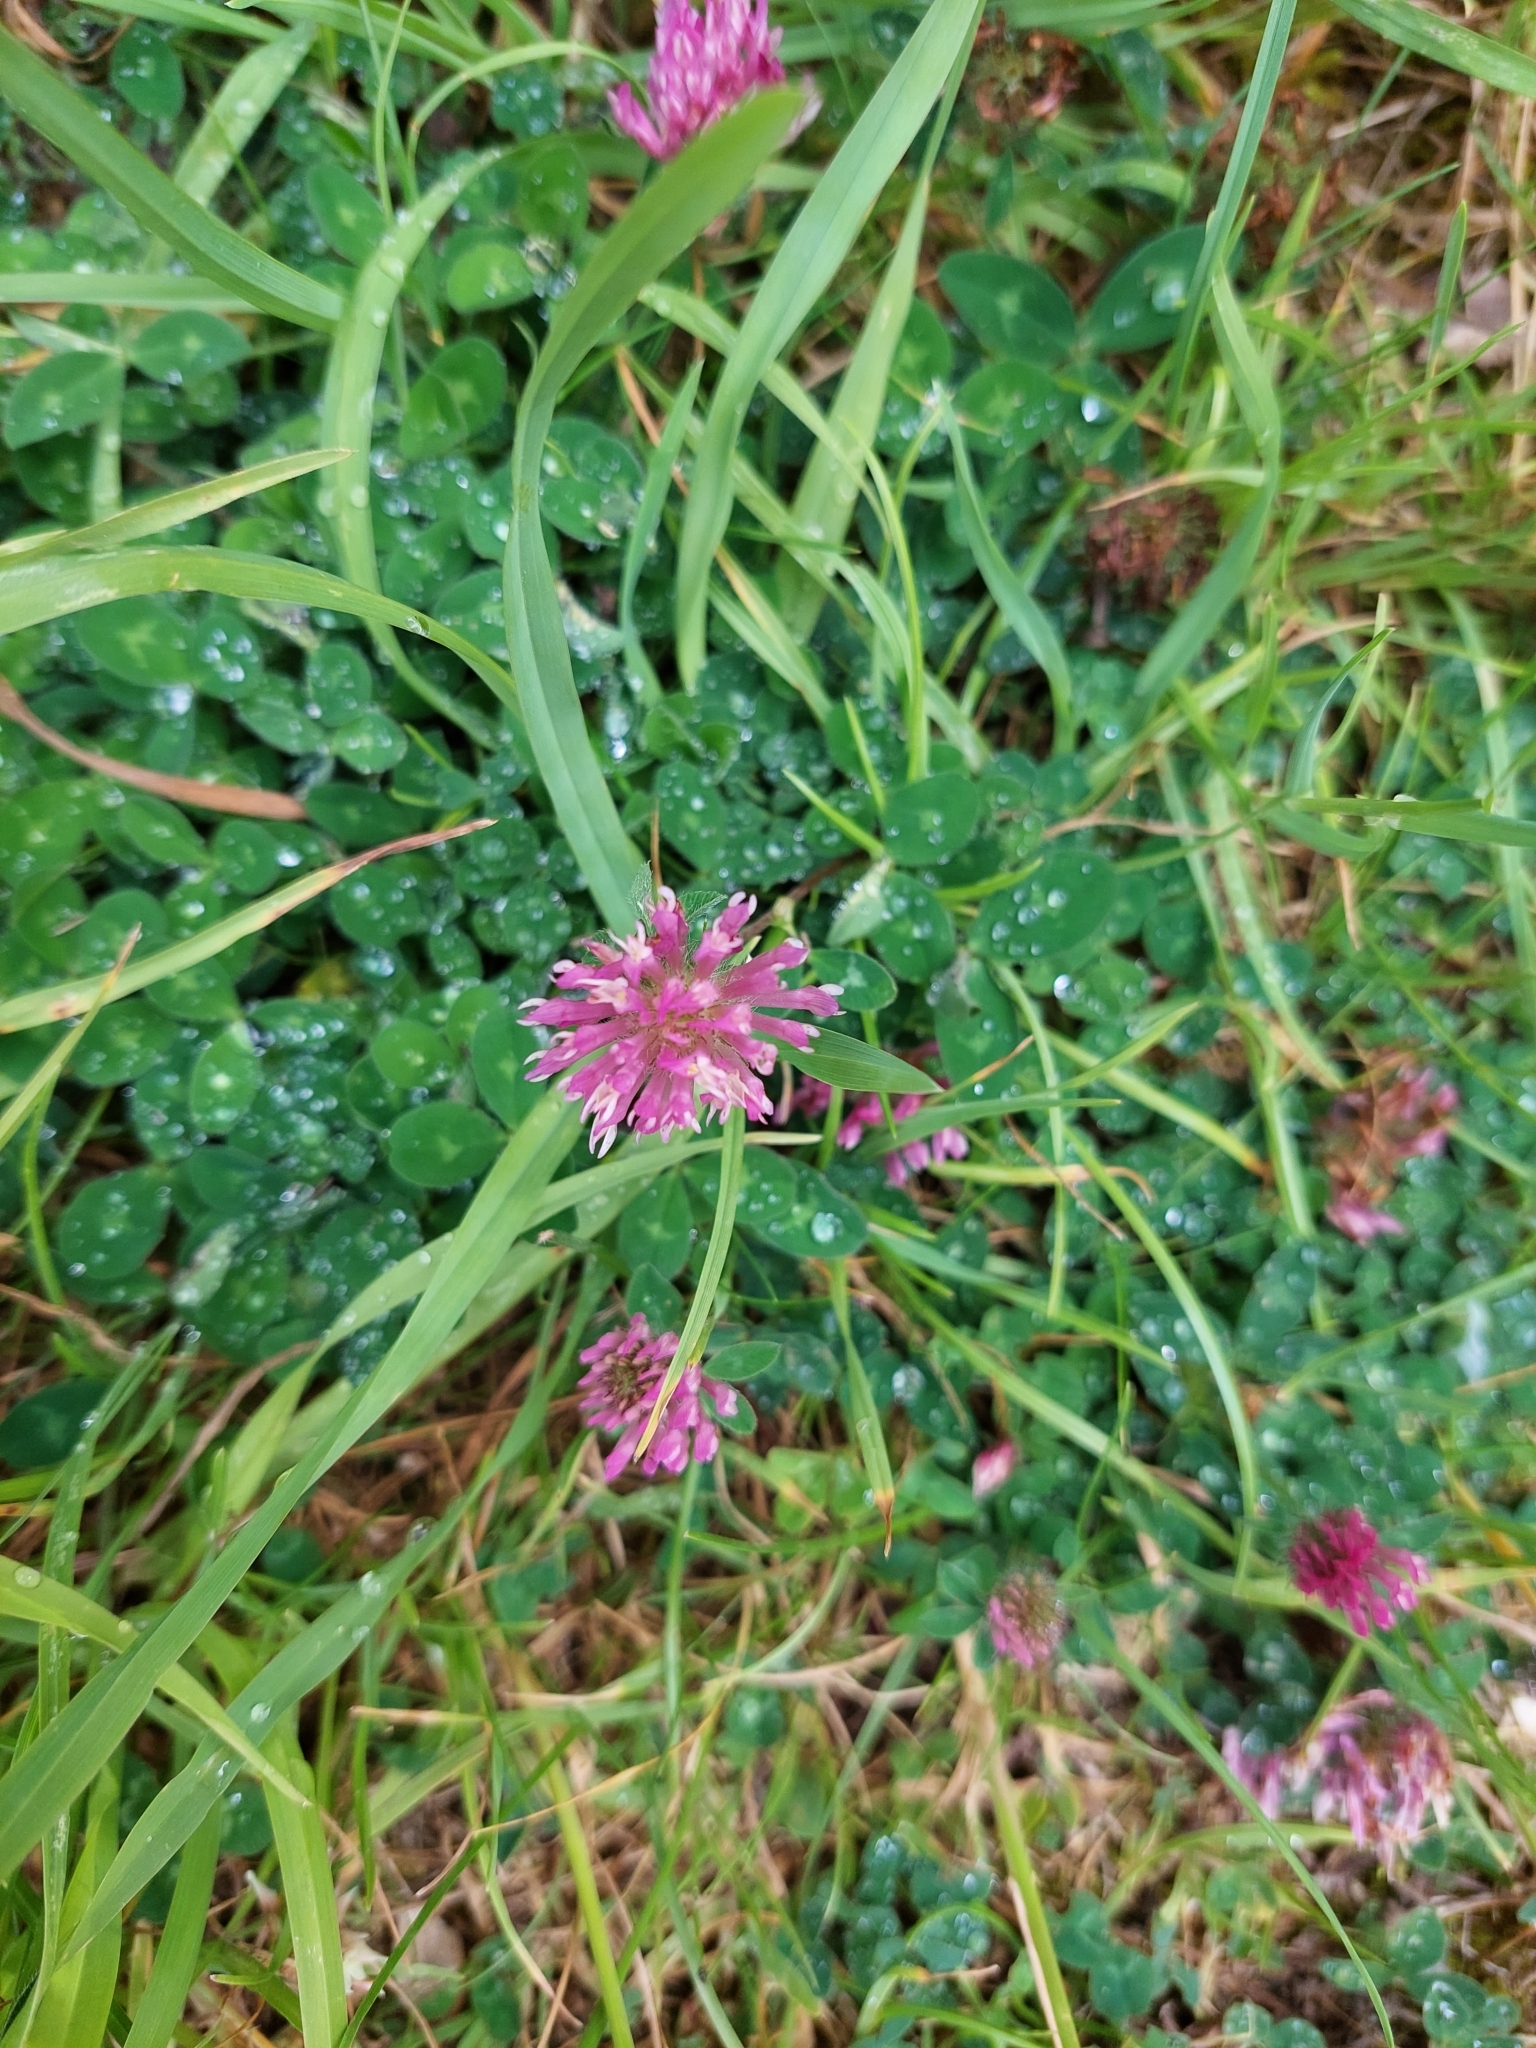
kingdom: Plantae
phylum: Tracheophyta
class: Magnoliopsida
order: Fabales
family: Fabaceae
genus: Trifolium
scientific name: Trifolium pratense
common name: Red clover
